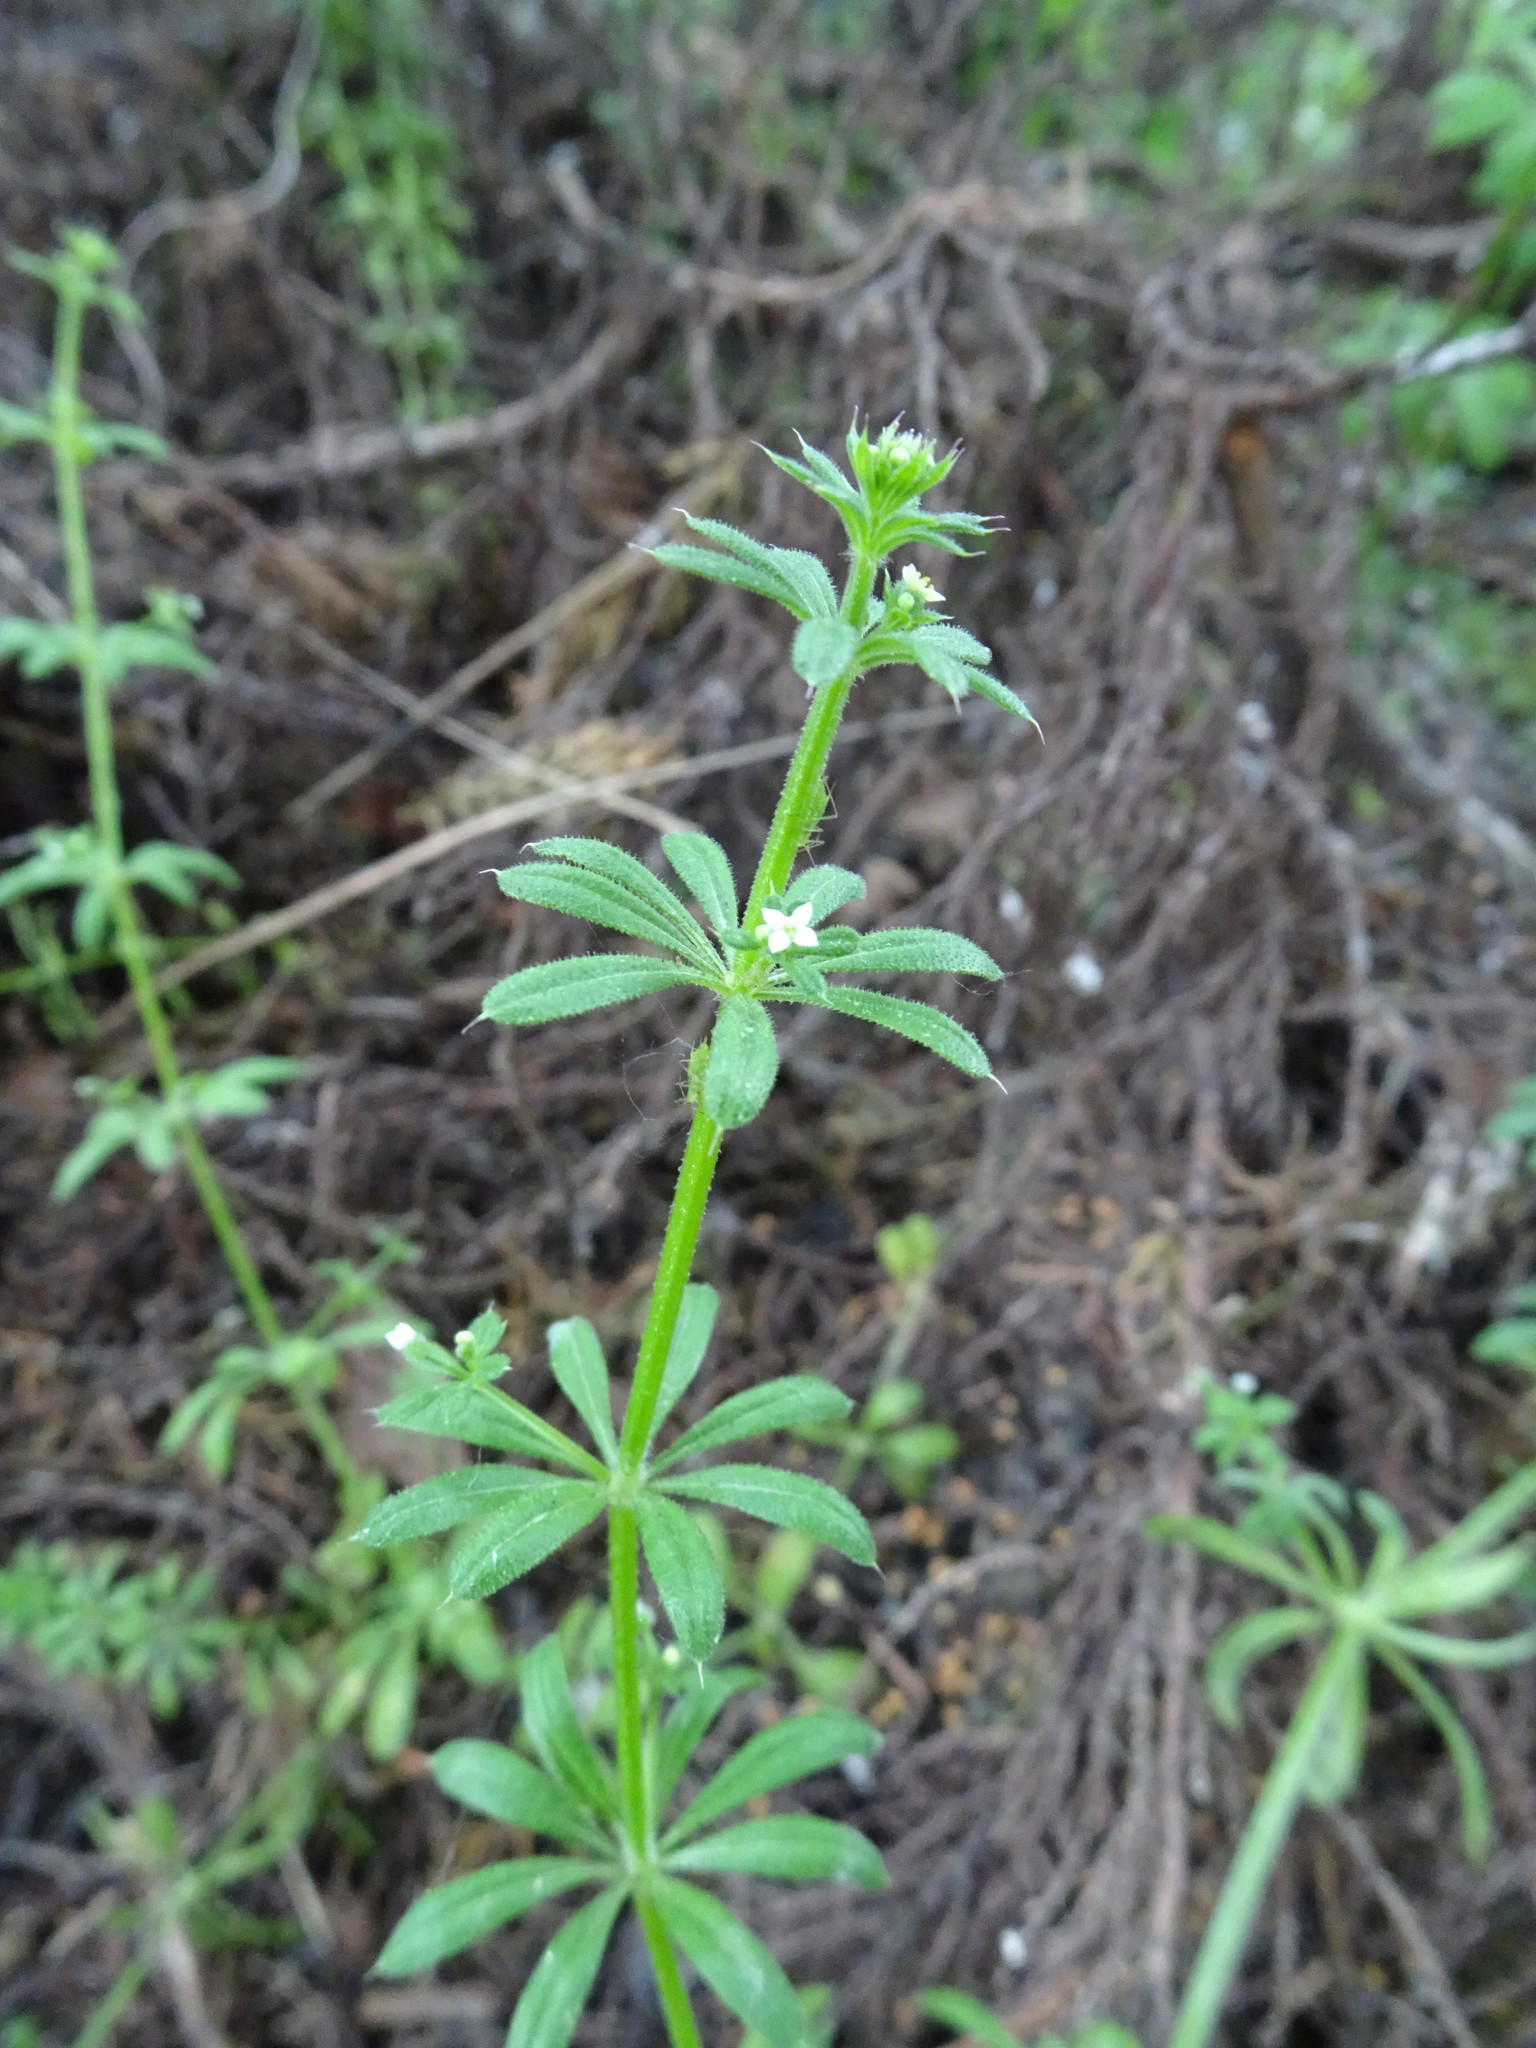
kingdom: Plantae
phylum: Tracheophyta
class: Magnoliopsida
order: Gentianales
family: Rubiaceae
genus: Galium
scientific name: Galium aparine
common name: Cleavers
